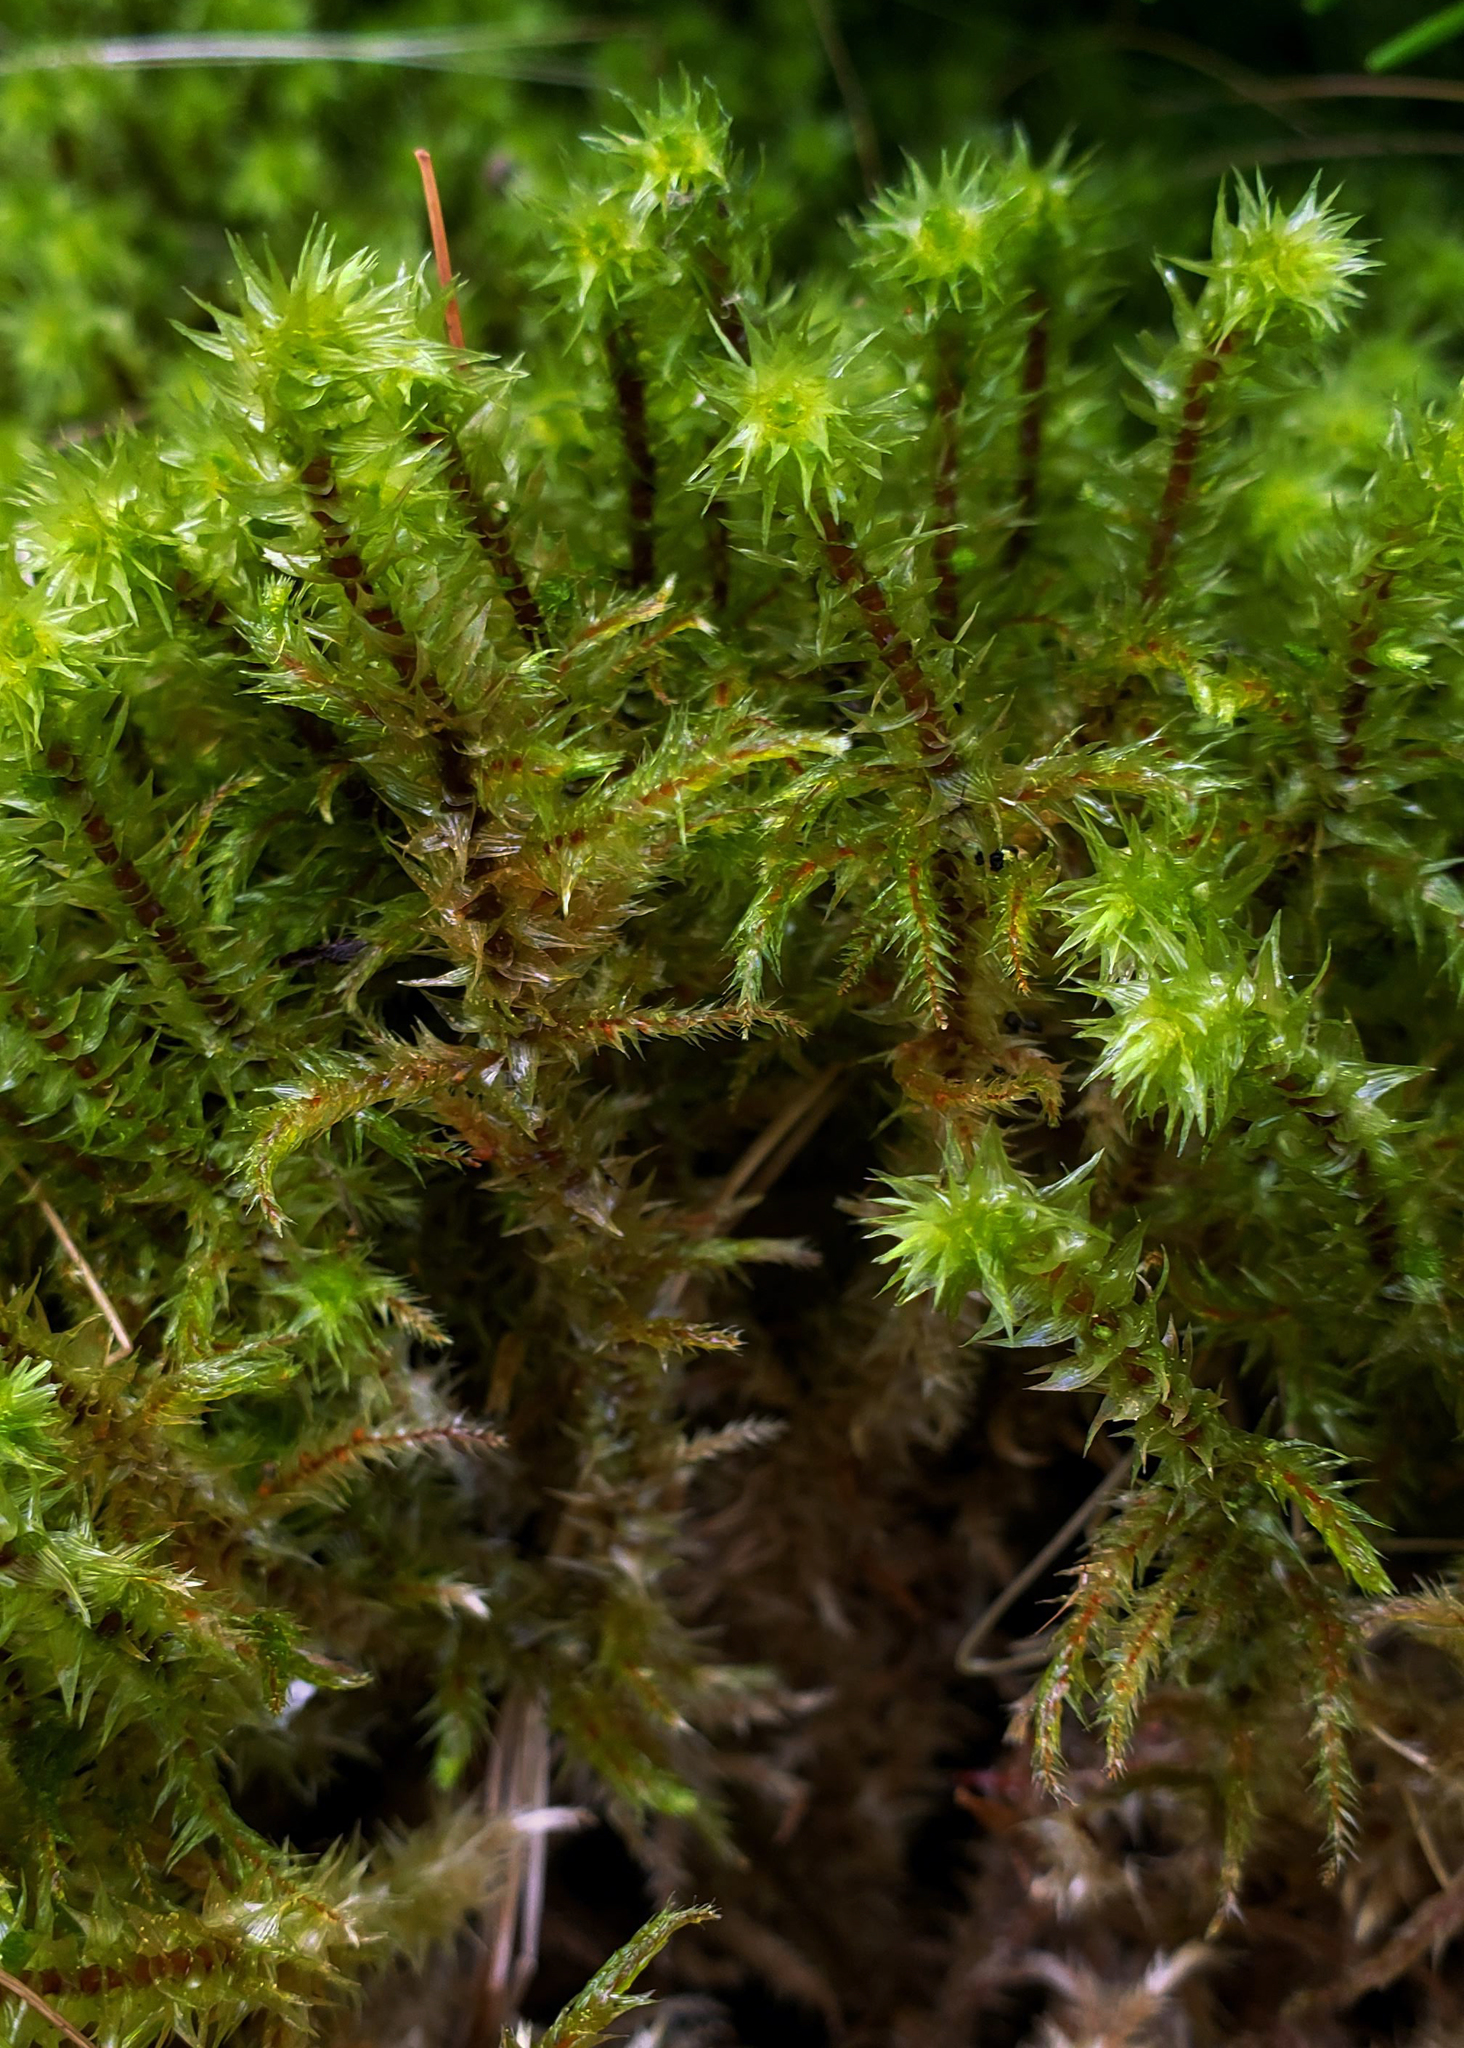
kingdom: Plantae
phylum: Bryophyta
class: Bryopsida
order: Hypnales
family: Hylocomiaceae
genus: Hylocomiadelphus
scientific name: Hylocomiadelphus triquetrus
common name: Rough goose neck moss
